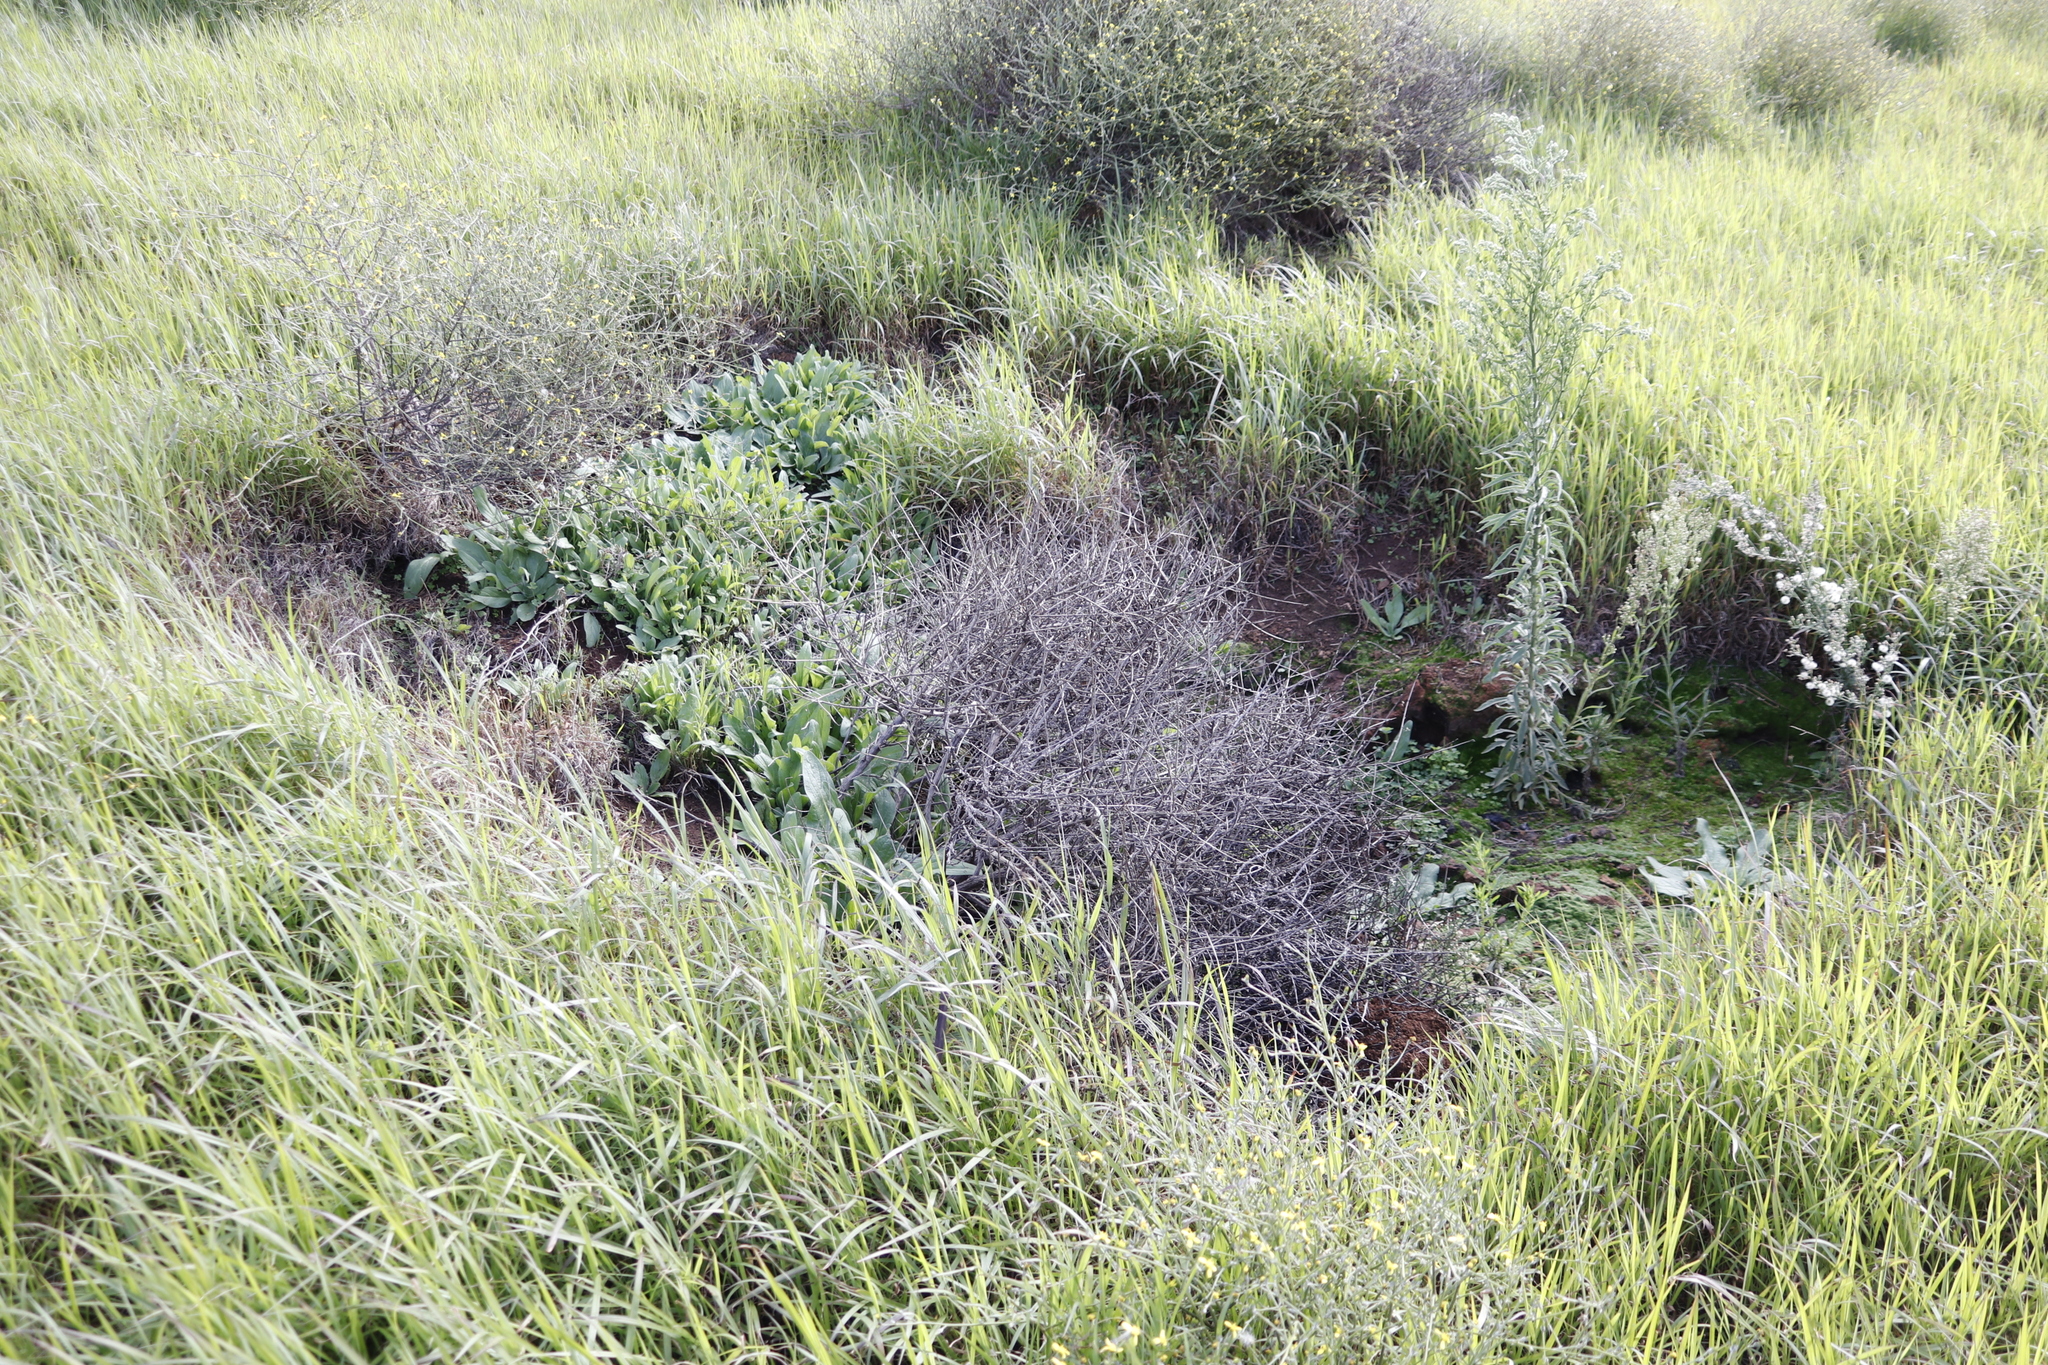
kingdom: Plantae
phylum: Tracheophyta
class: Magnoliopsida
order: Boraginales
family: Boraginaceae
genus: Echium
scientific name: Echium plantagineum
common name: Purple viper's-bugloss
